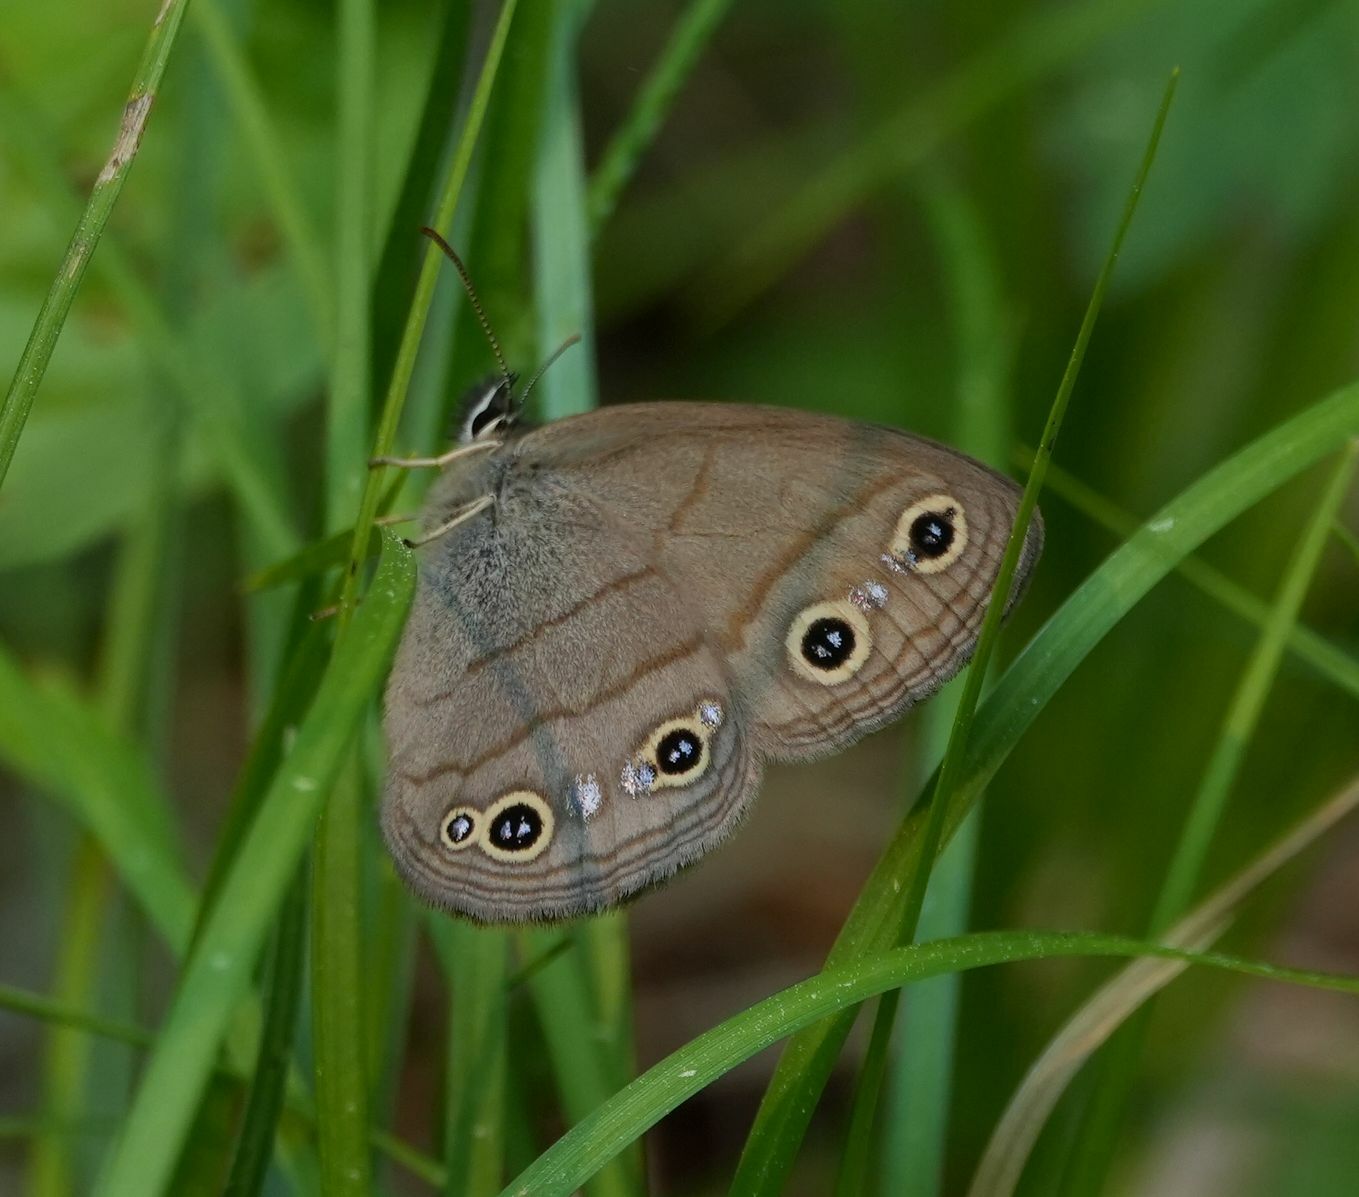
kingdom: Animalia
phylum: Arthropoda
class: Insecta
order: Lepidoptera
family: Nymphalidae
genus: Euptychia
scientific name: Euptychia cymela
